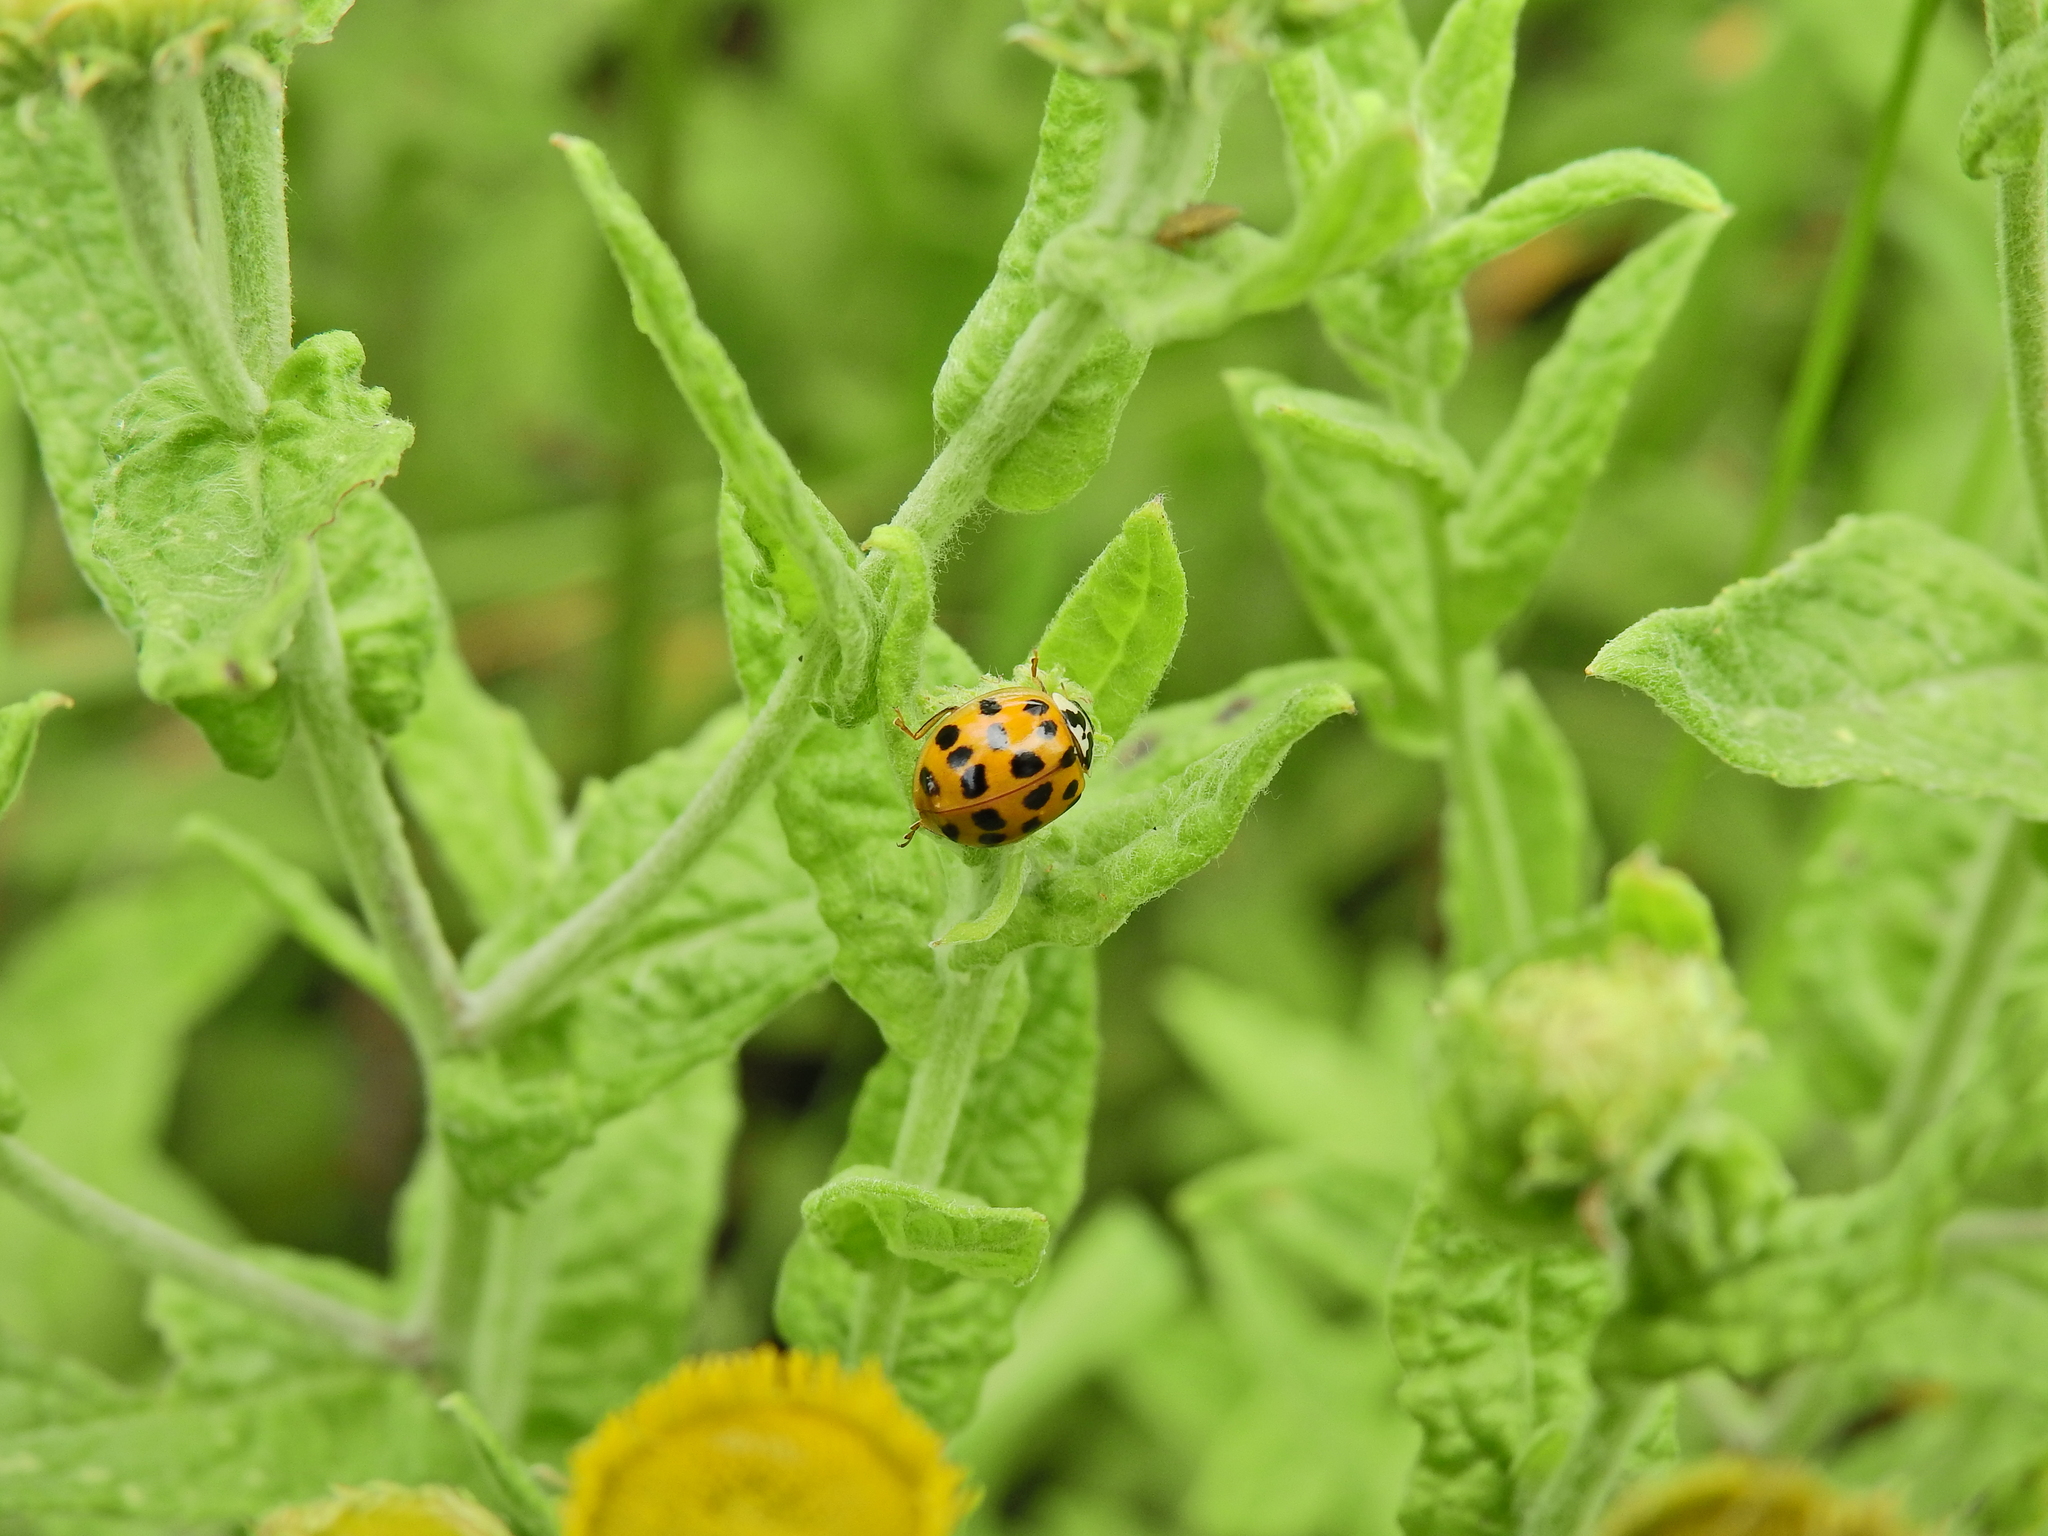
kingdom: Animalia
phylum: Arthropoda
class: Insecta
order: Coleoptera
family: Coccinellidae
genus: Harmonia
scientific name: Harmonia axyridis
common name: Harlequin ladybird
